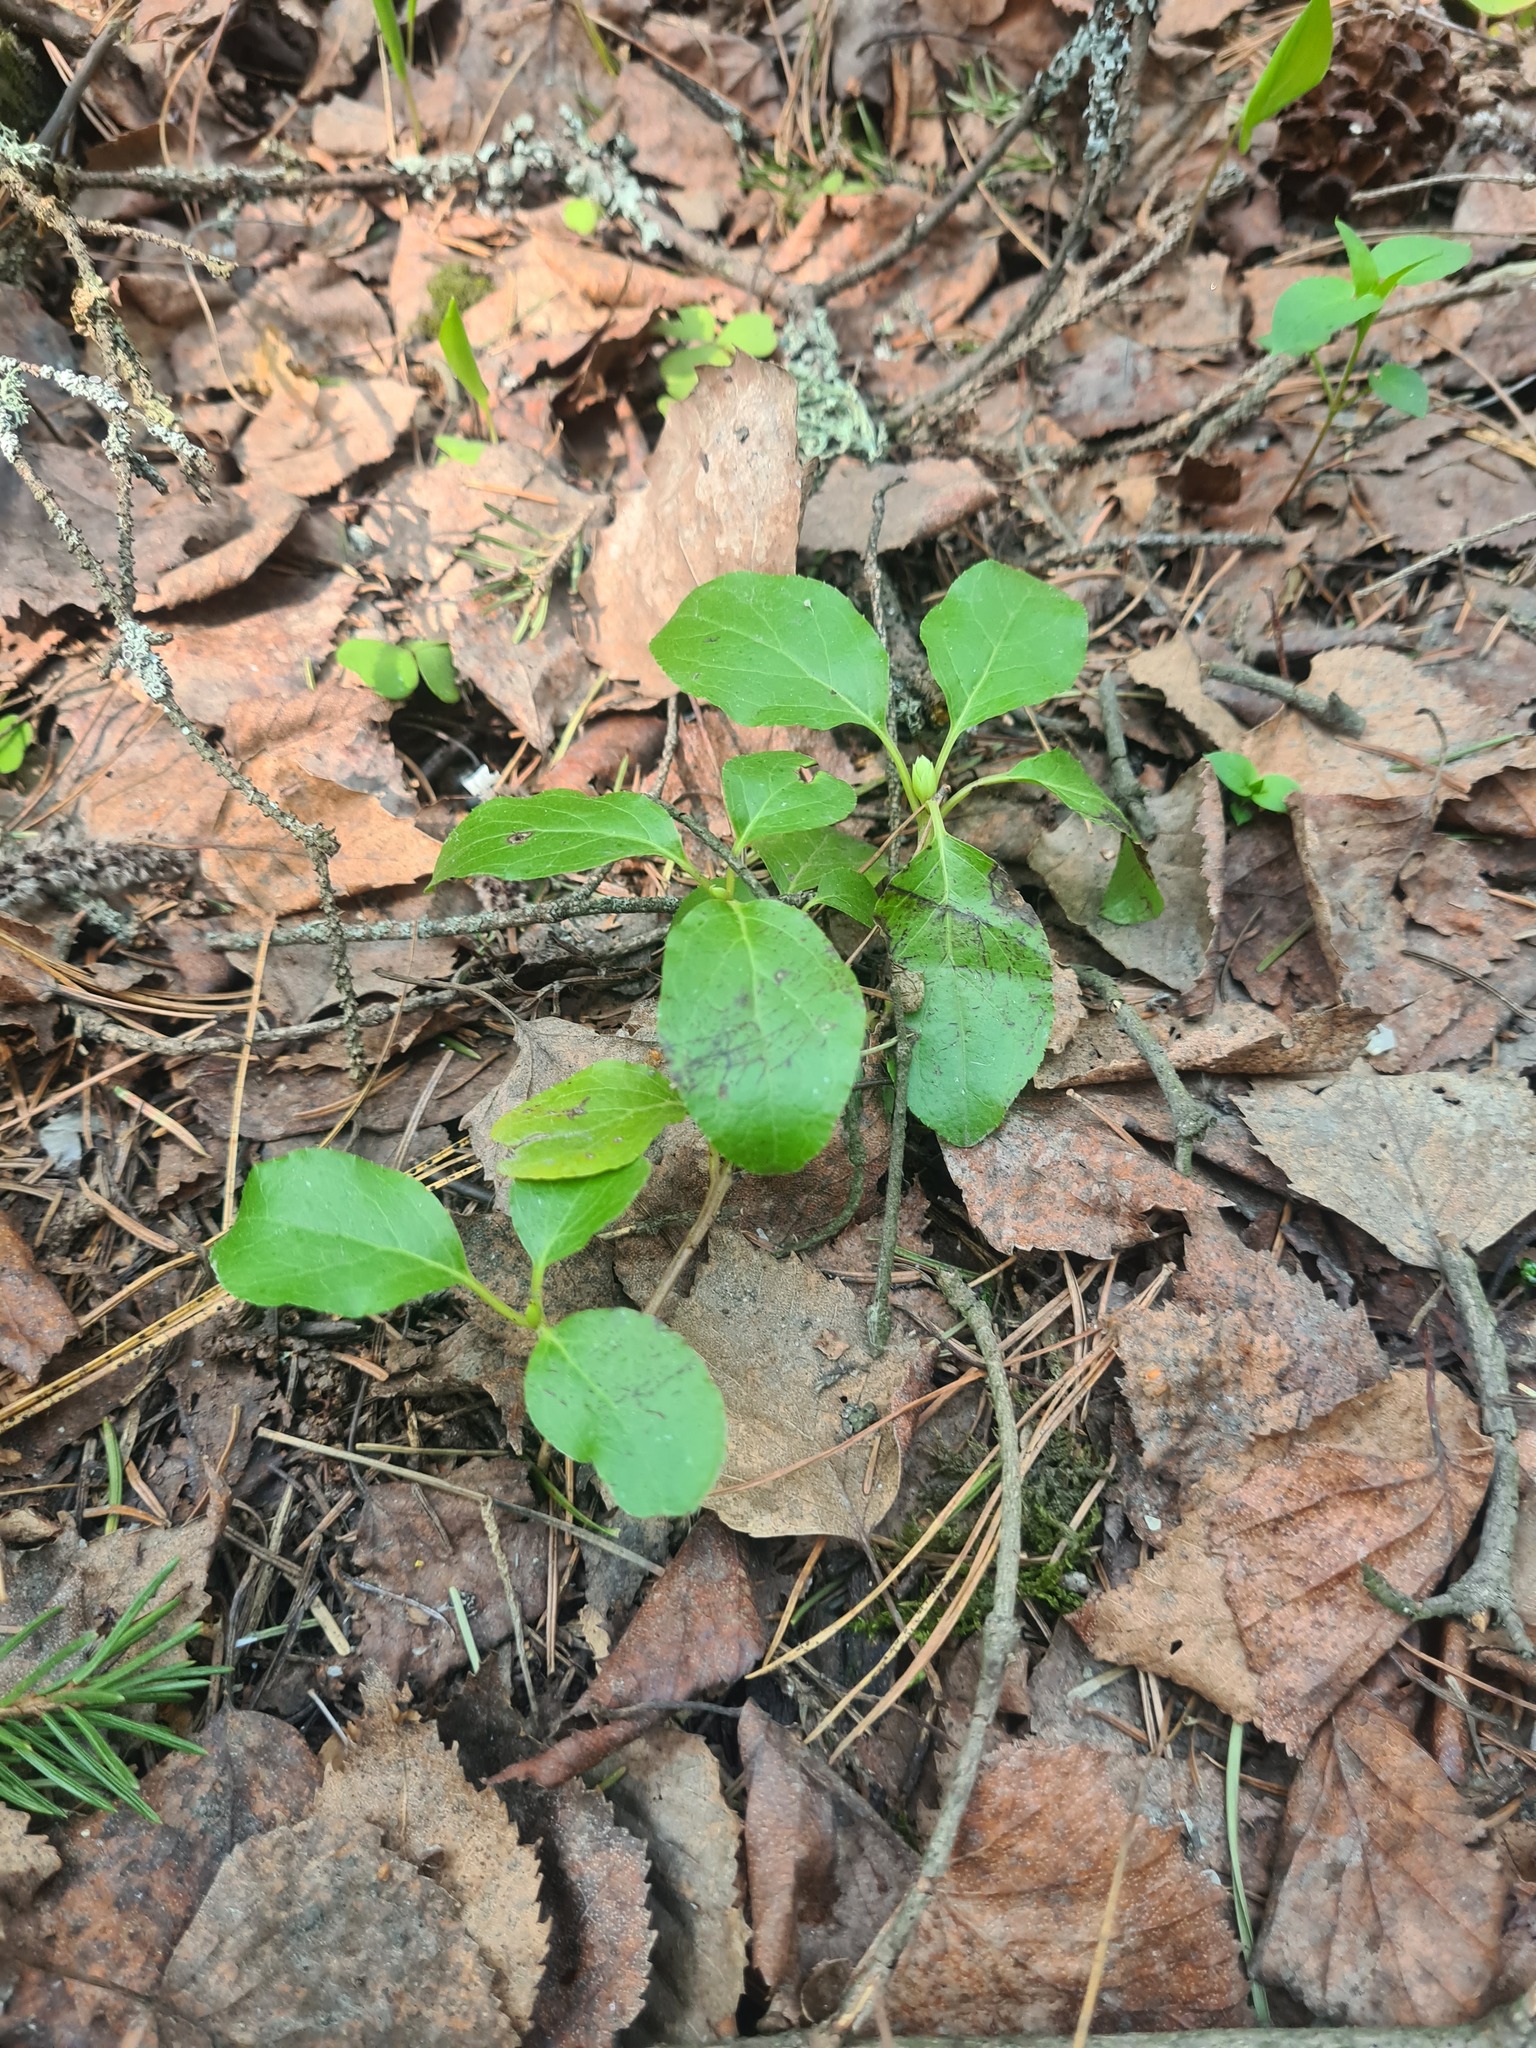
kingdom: Plantae
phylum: Tracheophyta
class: Magnoliopsida
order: Ericales
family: Ericaceae
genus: Orthilia
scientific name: Orthilia secunda
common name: One-sided orthilia
